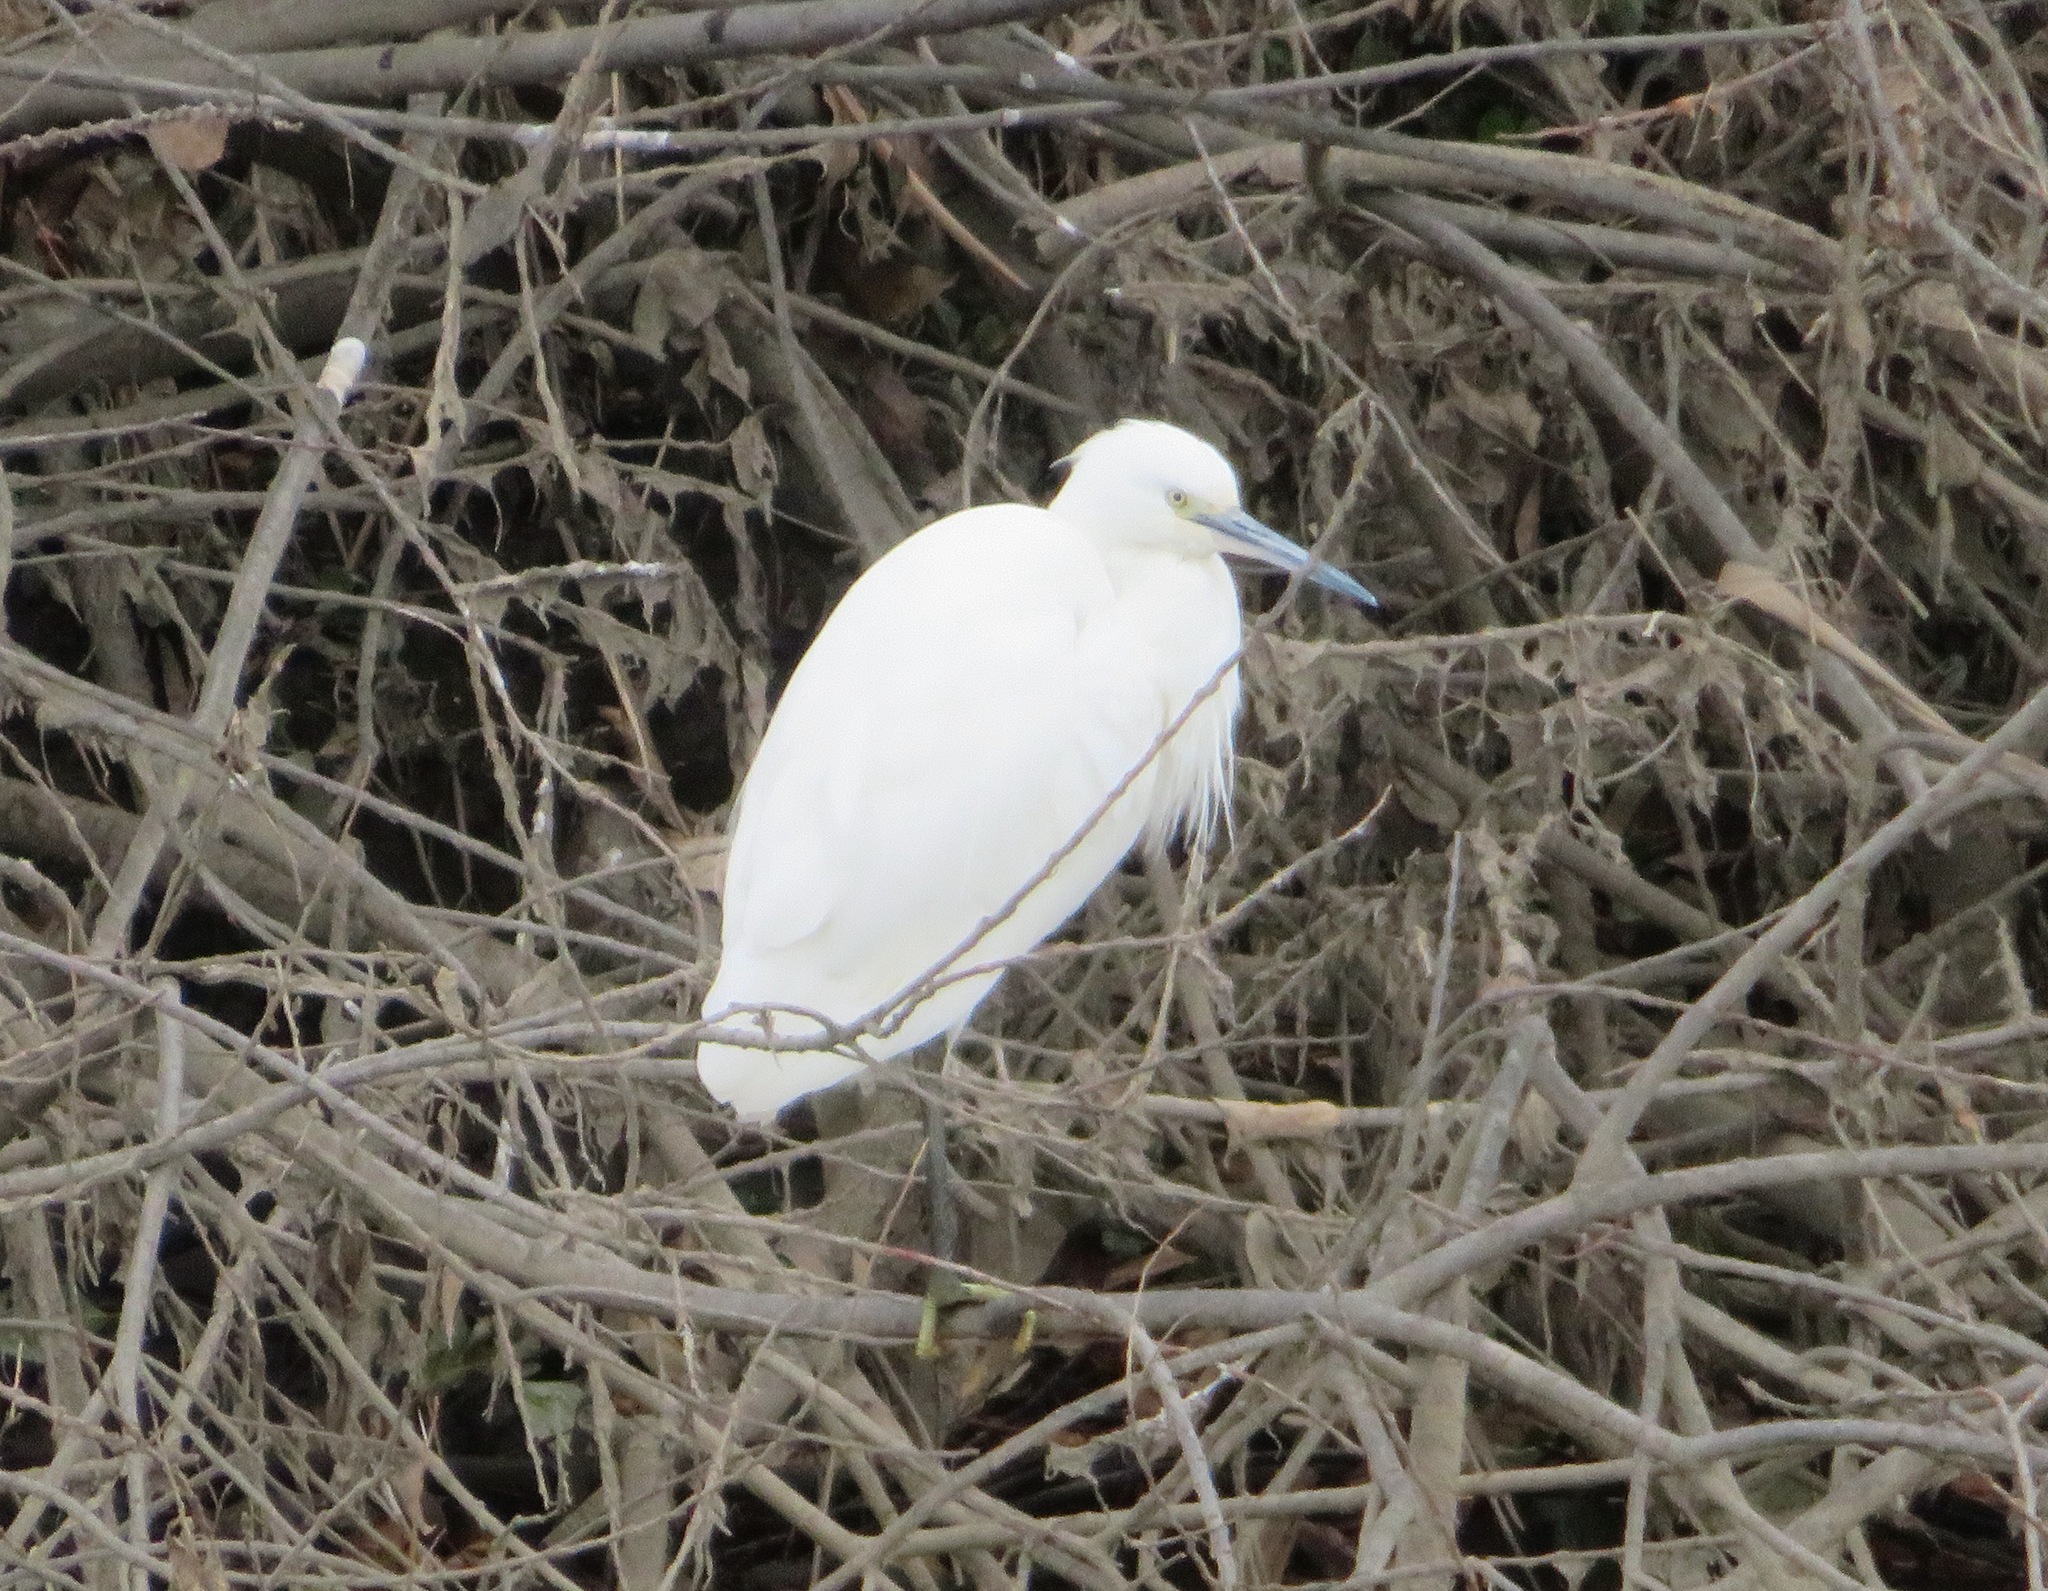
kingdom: Animalia
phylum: Chordata
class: Aves
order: Pelecaniformes
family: Ardeidae
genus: Egretta
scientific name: Egretta garzetta
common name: Little egret
